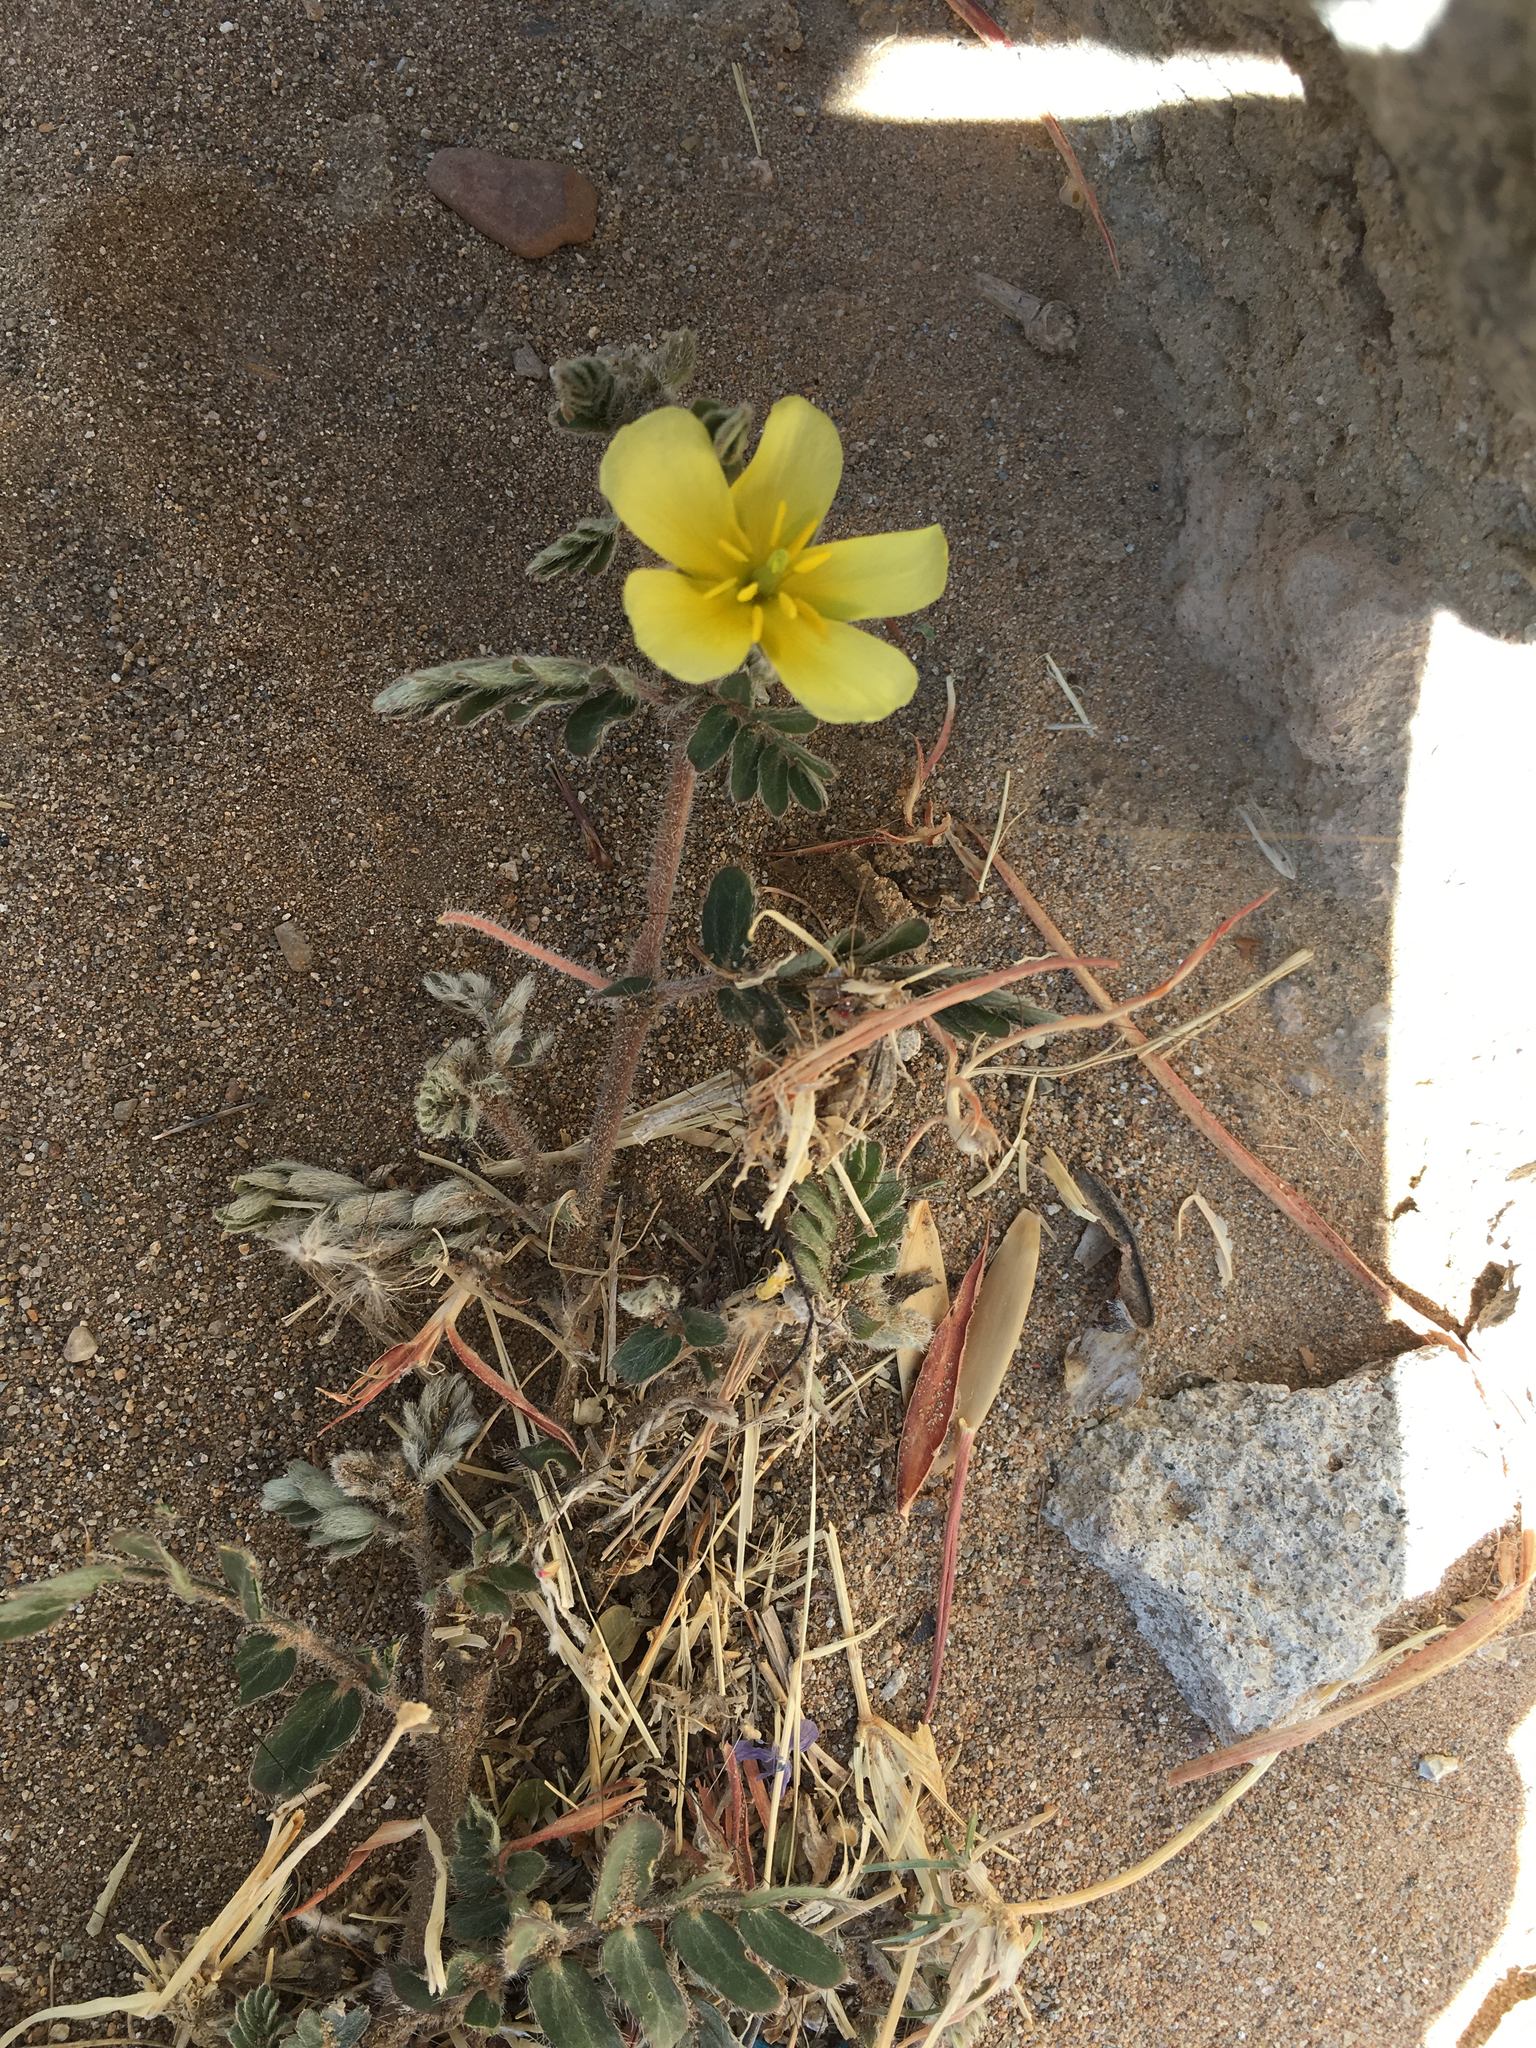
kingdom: Plantae
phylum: Tracheophyta
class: Magnoliopsida
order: Zygophyllales
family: Zygophyllaceae
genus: Tribulus
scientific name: Tribulus cistoides
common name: Jamaican feverplant
